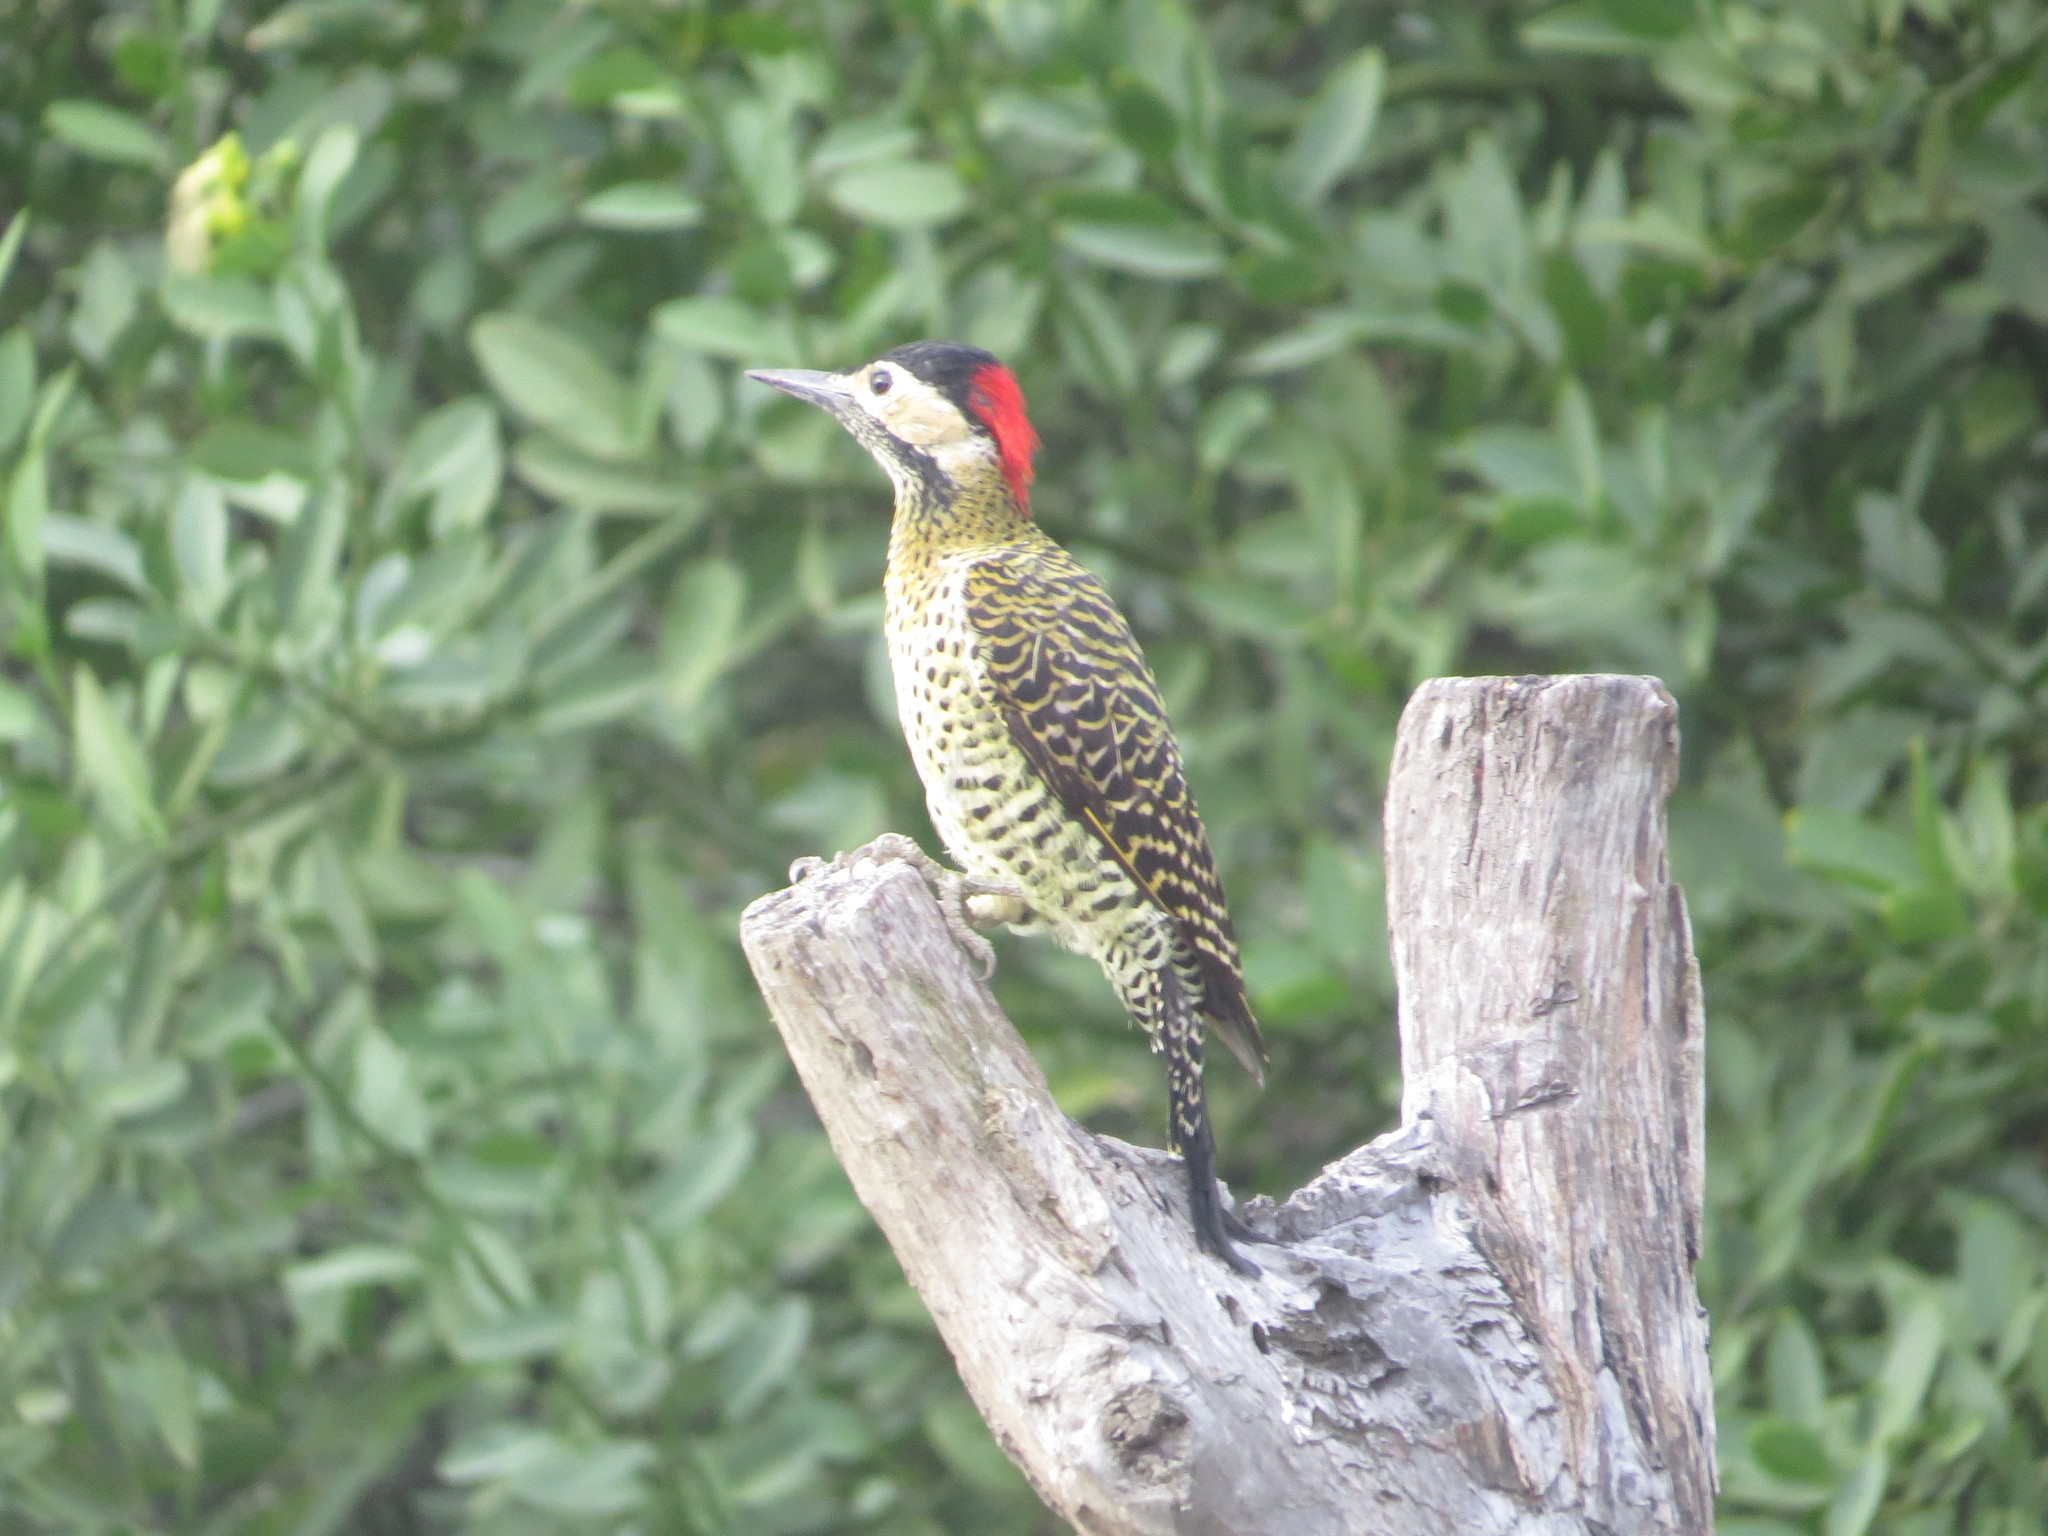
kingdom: Animalia
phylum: Chordata
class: Aves
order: Piciformes
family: Picidae
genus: Colaptes
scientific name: Colaptes melanochloros
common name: Green-barred woodpecker
